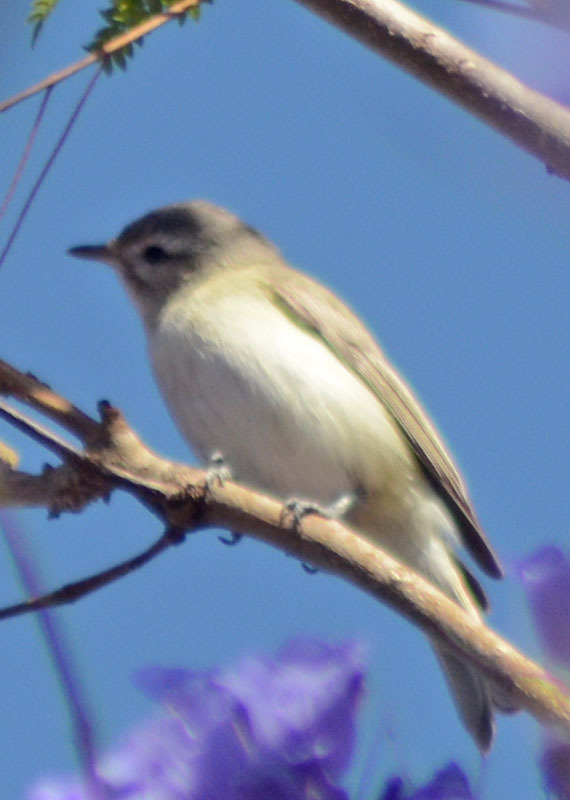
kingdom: Animalia
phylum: Chordata
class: Aves
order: Passeriformes
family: Vireonidae
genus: Vireo
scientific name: Vireo gilvus
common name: Warbling vireo
